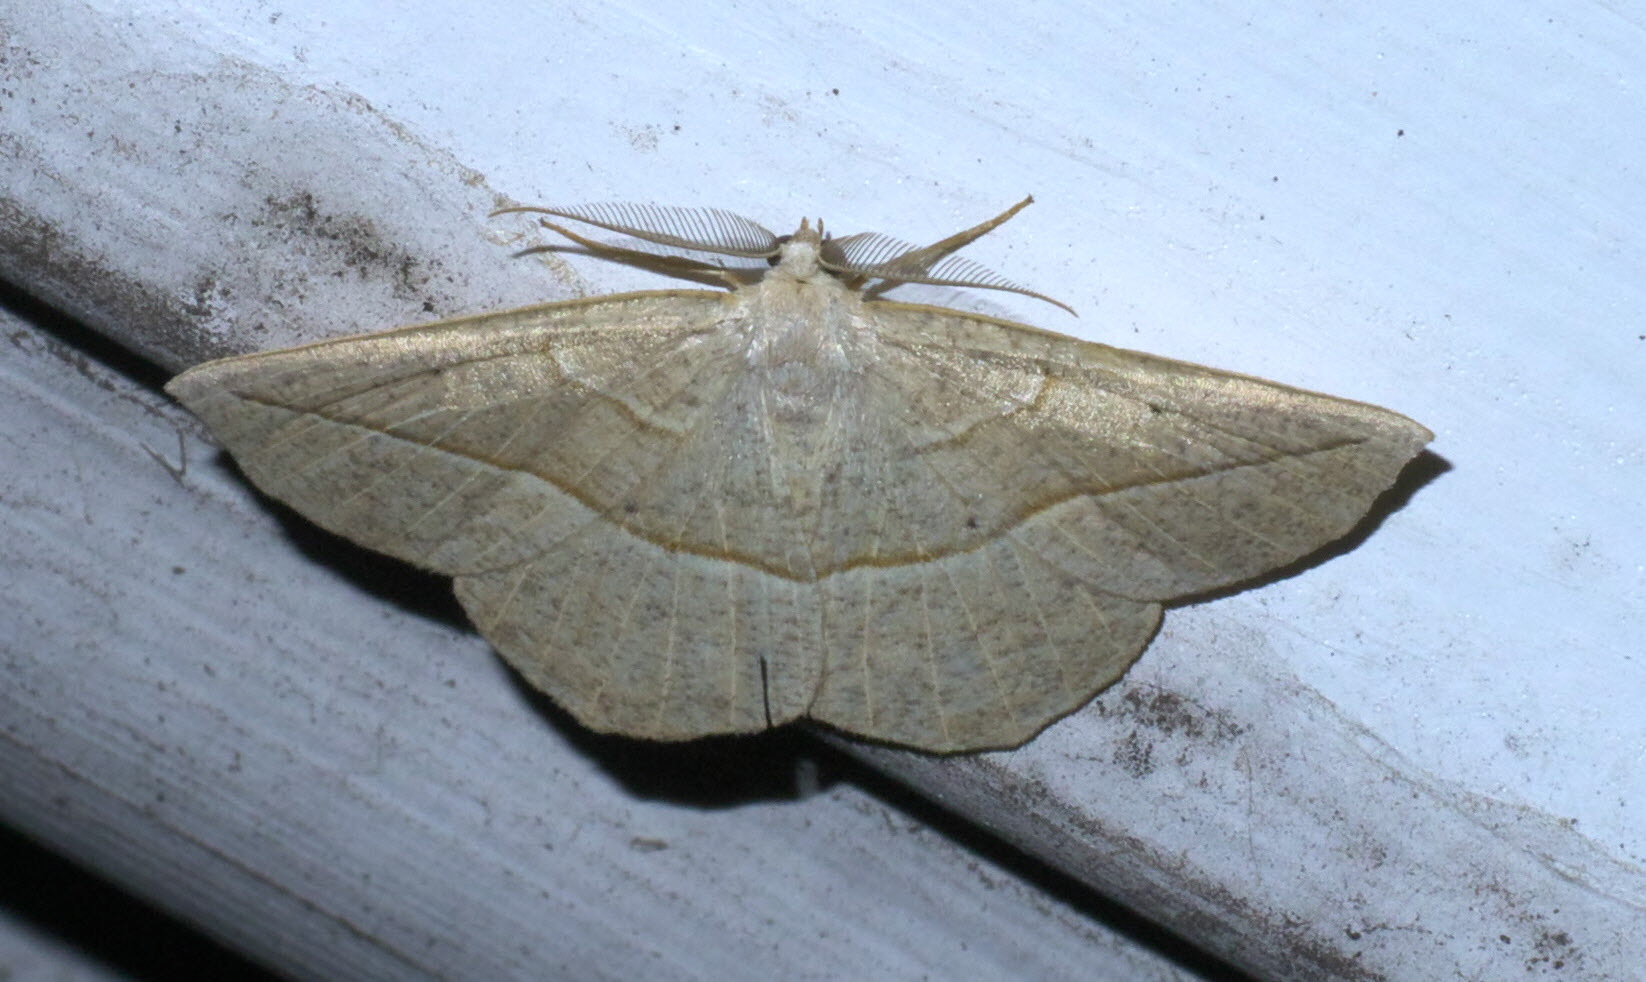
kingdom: Animalia
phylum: Arthropoda
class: Insecta
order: Lepidoptera
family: Geometridae
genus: Eusarca
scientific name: Eusarca confusaria
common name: Confused eusarca
